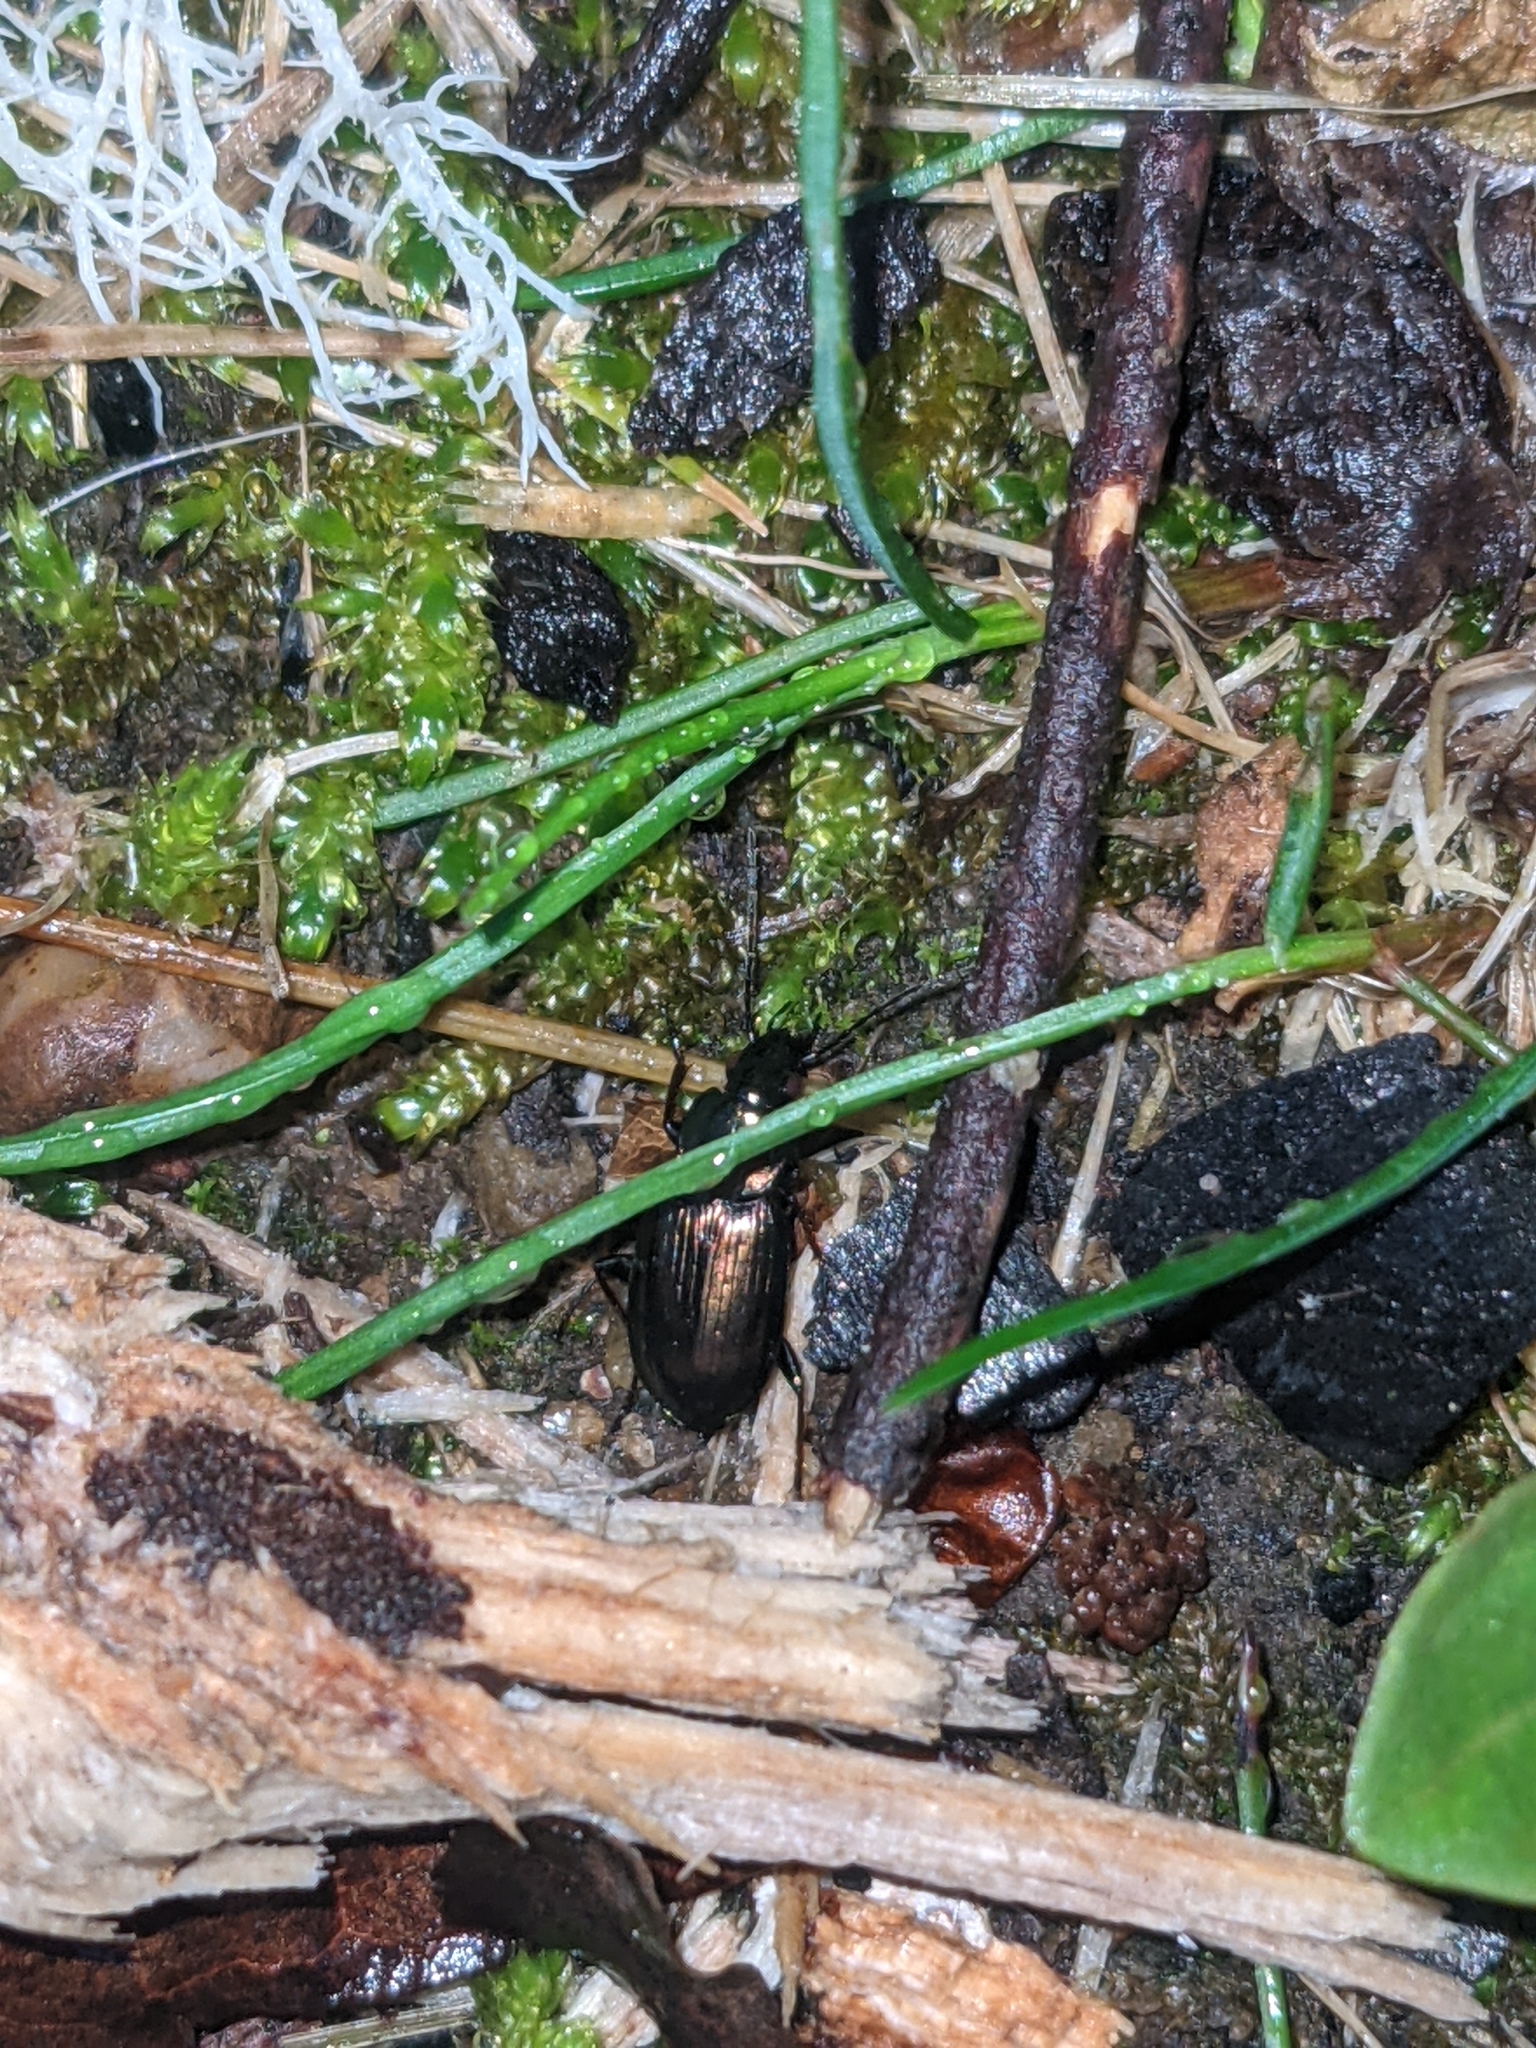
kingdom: Animalia
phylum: Arthropoda
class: Insecta
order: Coleoptera
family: Carabidae
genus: Agonum
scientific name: Agonum muelleri
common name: Müller's harp ground beetle
